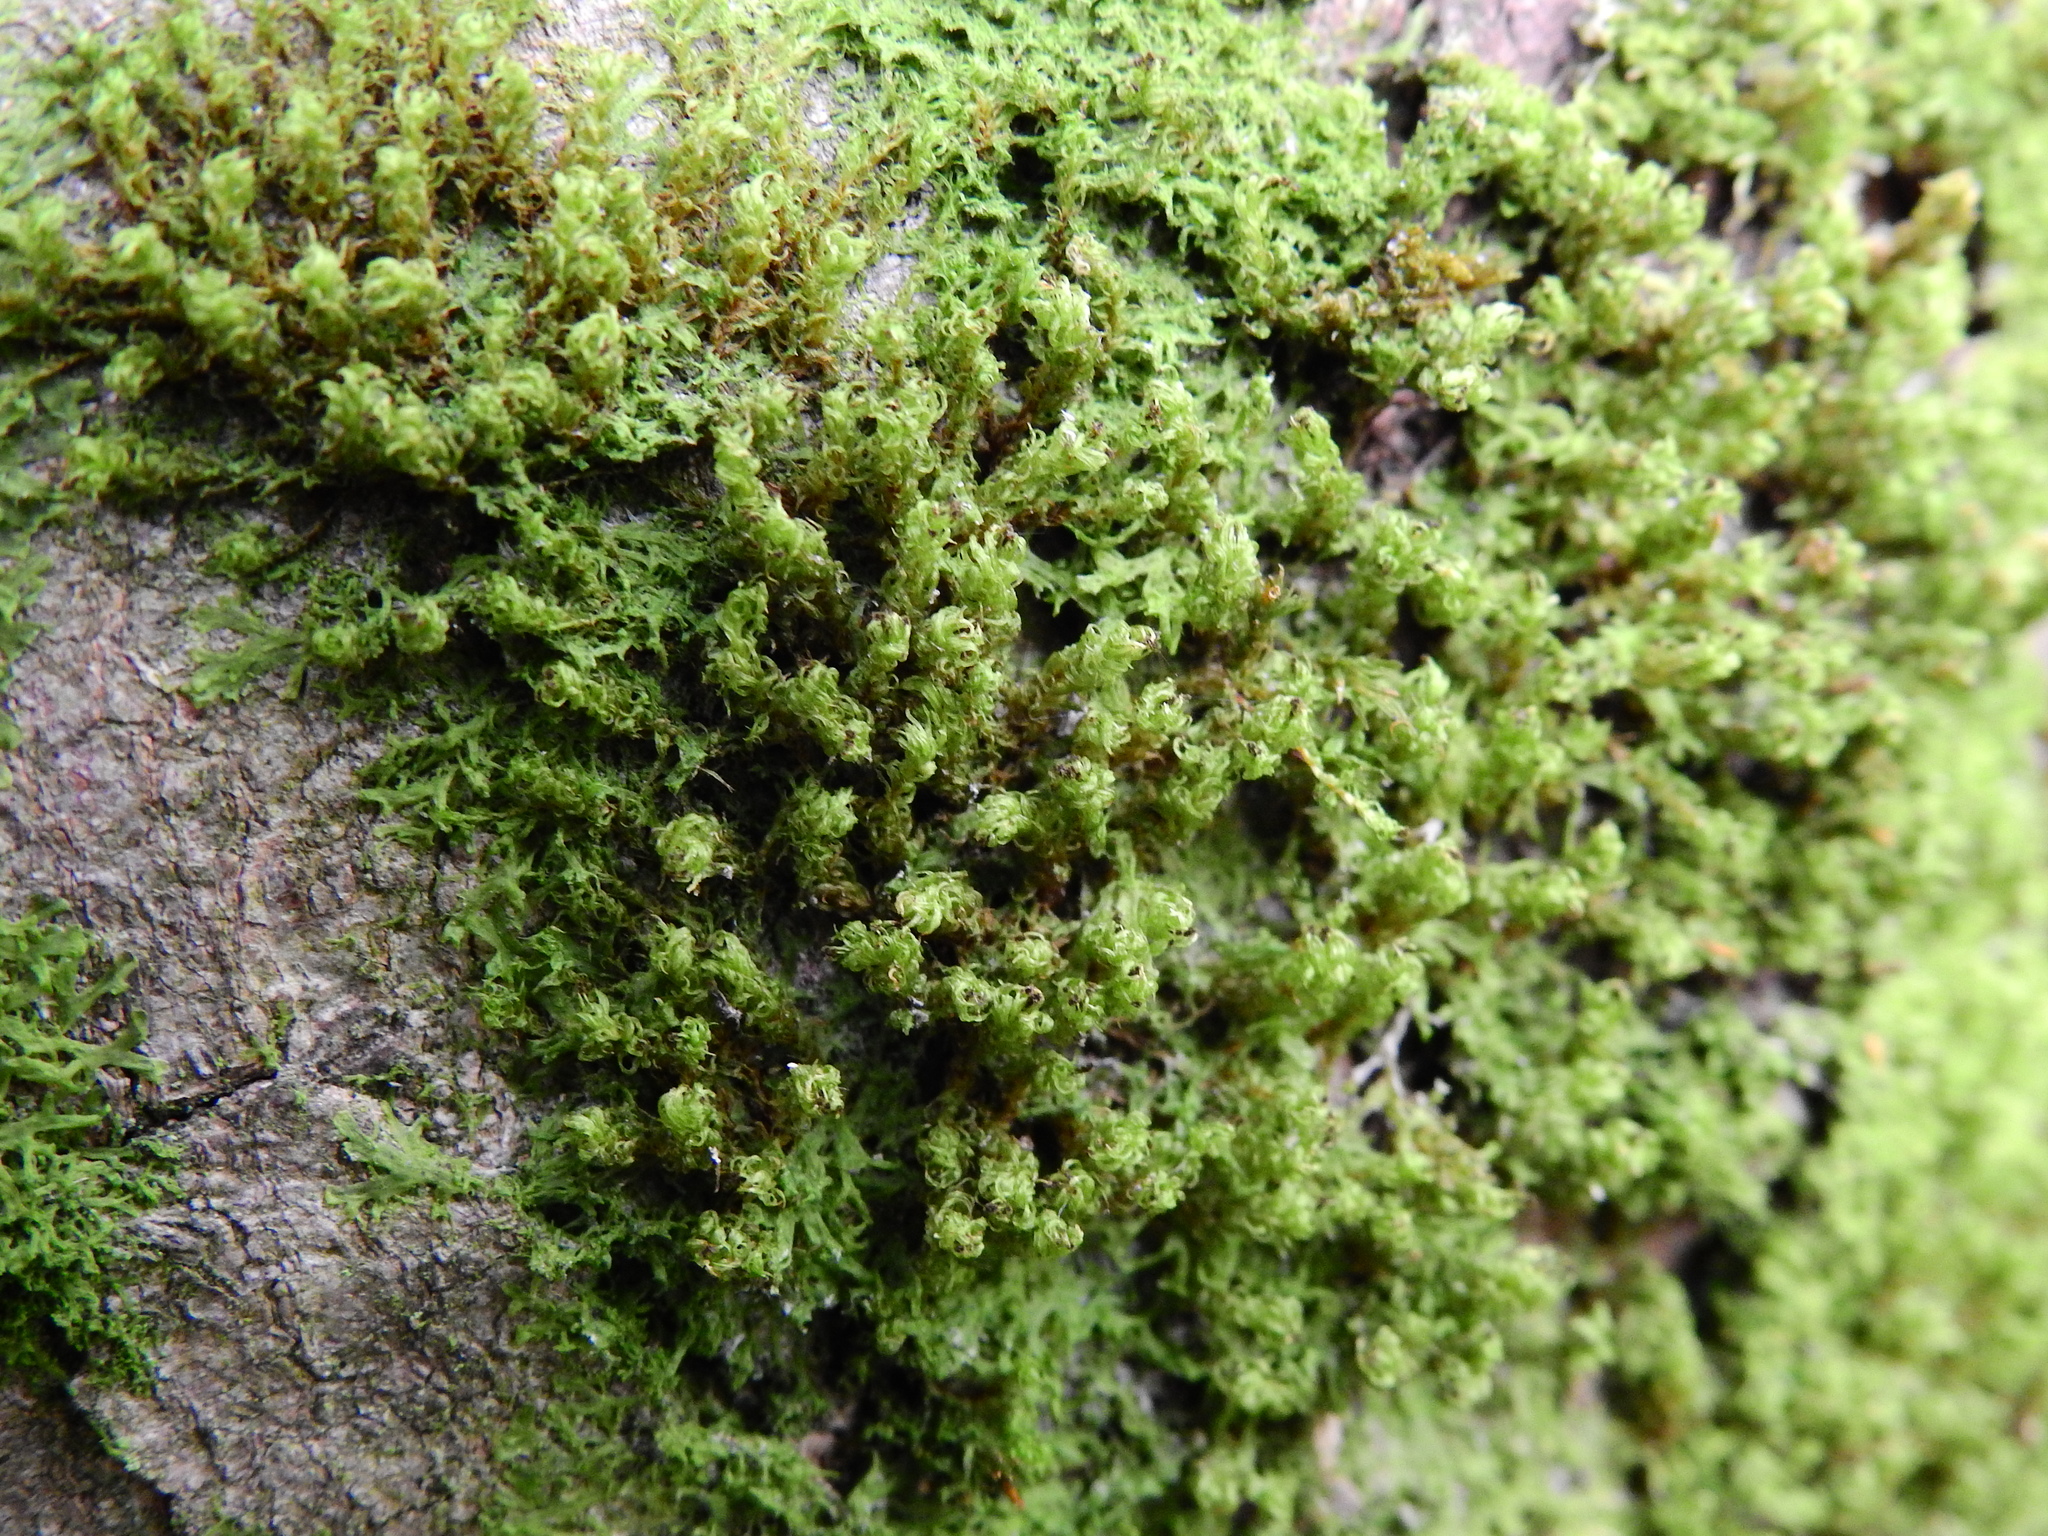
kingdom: Plantae
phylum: Bryophyta
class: Bryopsida
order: Orthotrichales
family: Orthotrichaceae
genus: Ulota
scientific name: Ulota crispa
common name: Crisped pincushion moss
